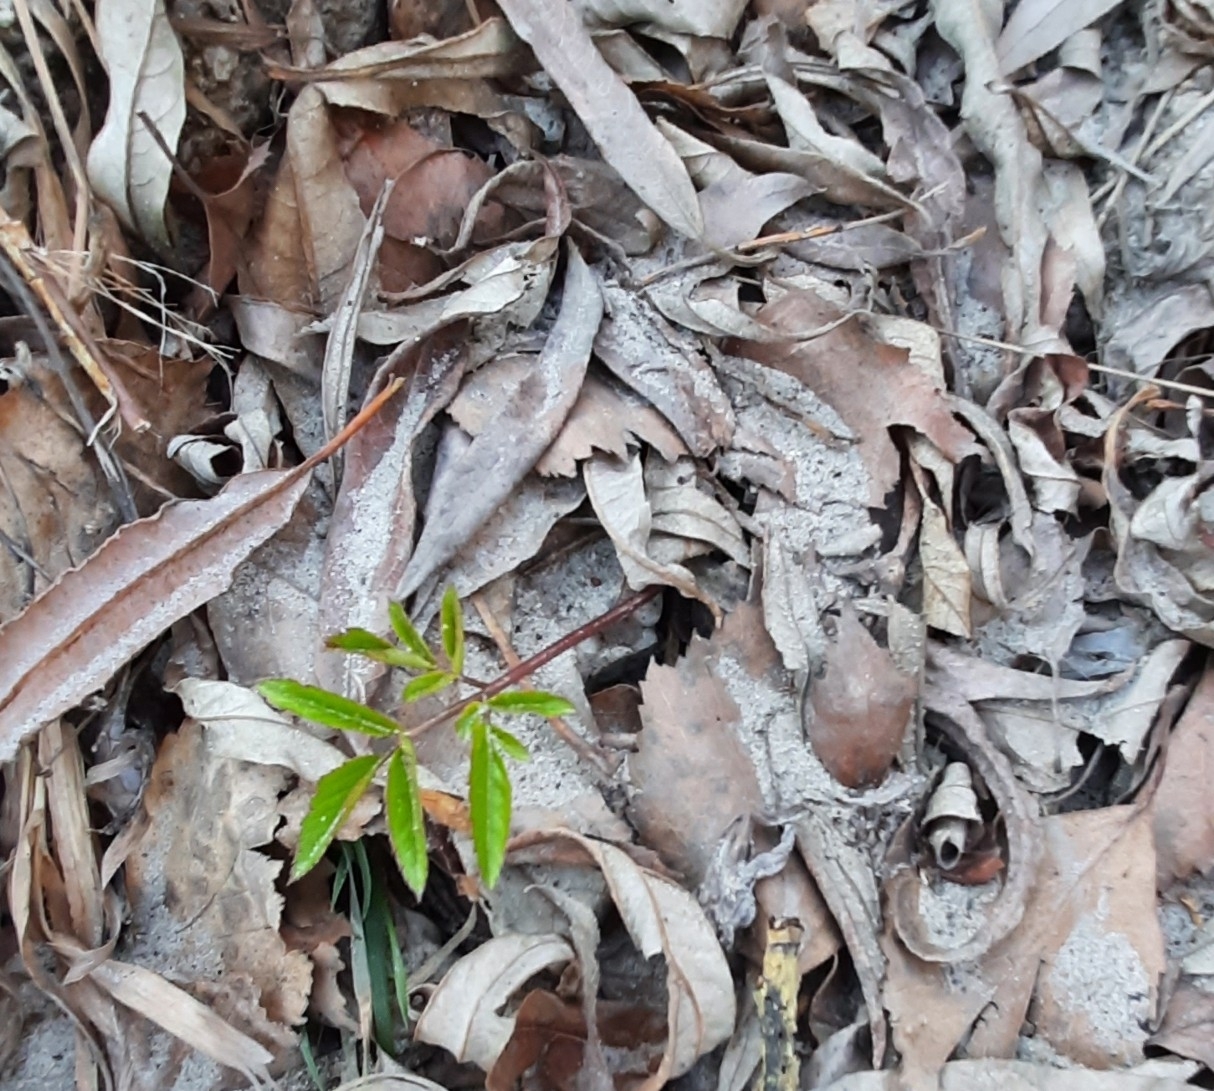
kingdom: Plantae
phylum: Tracheophyta
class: Magnoliopsida
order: Apiales
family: Apiaceae
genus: Angelica
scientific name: Angelica sylvestris
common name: Wild angelica
